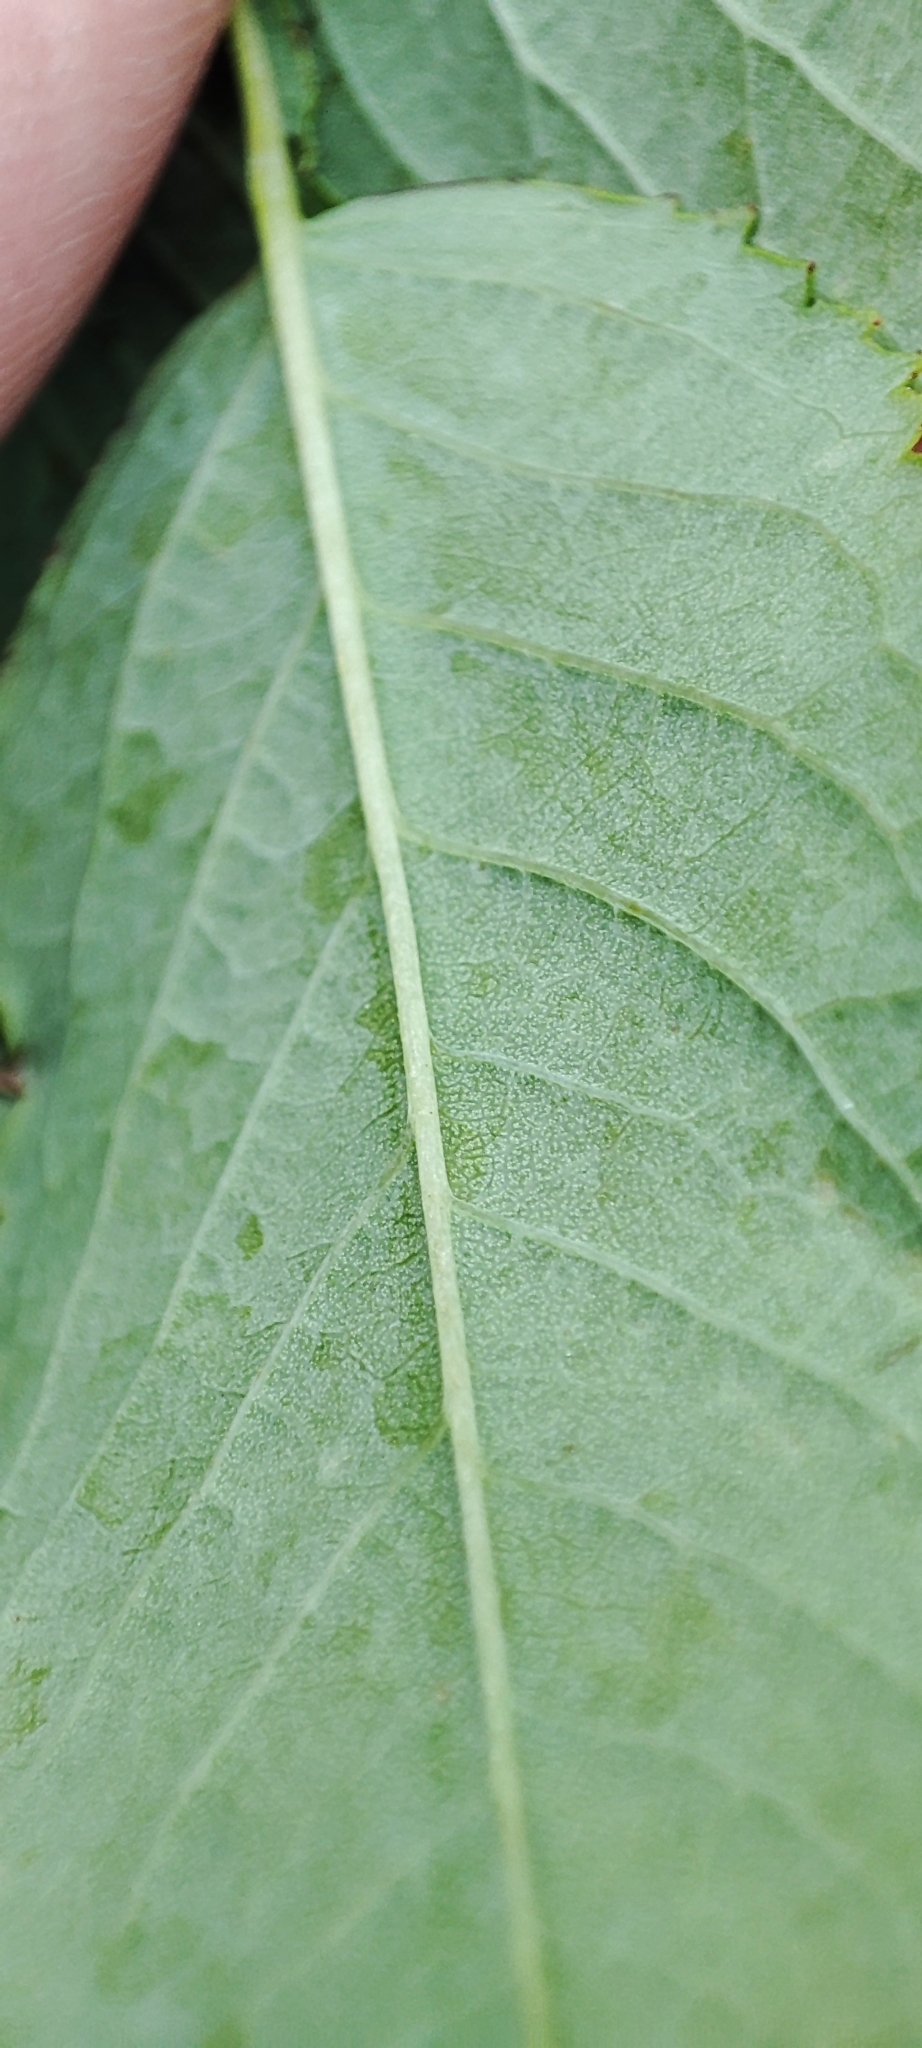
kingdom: Plantae
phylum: Tracheophyta
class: Magnoliopsida
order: Rosales
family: Rosaceae
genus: Rosa
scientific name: Rosa glabrifolia
